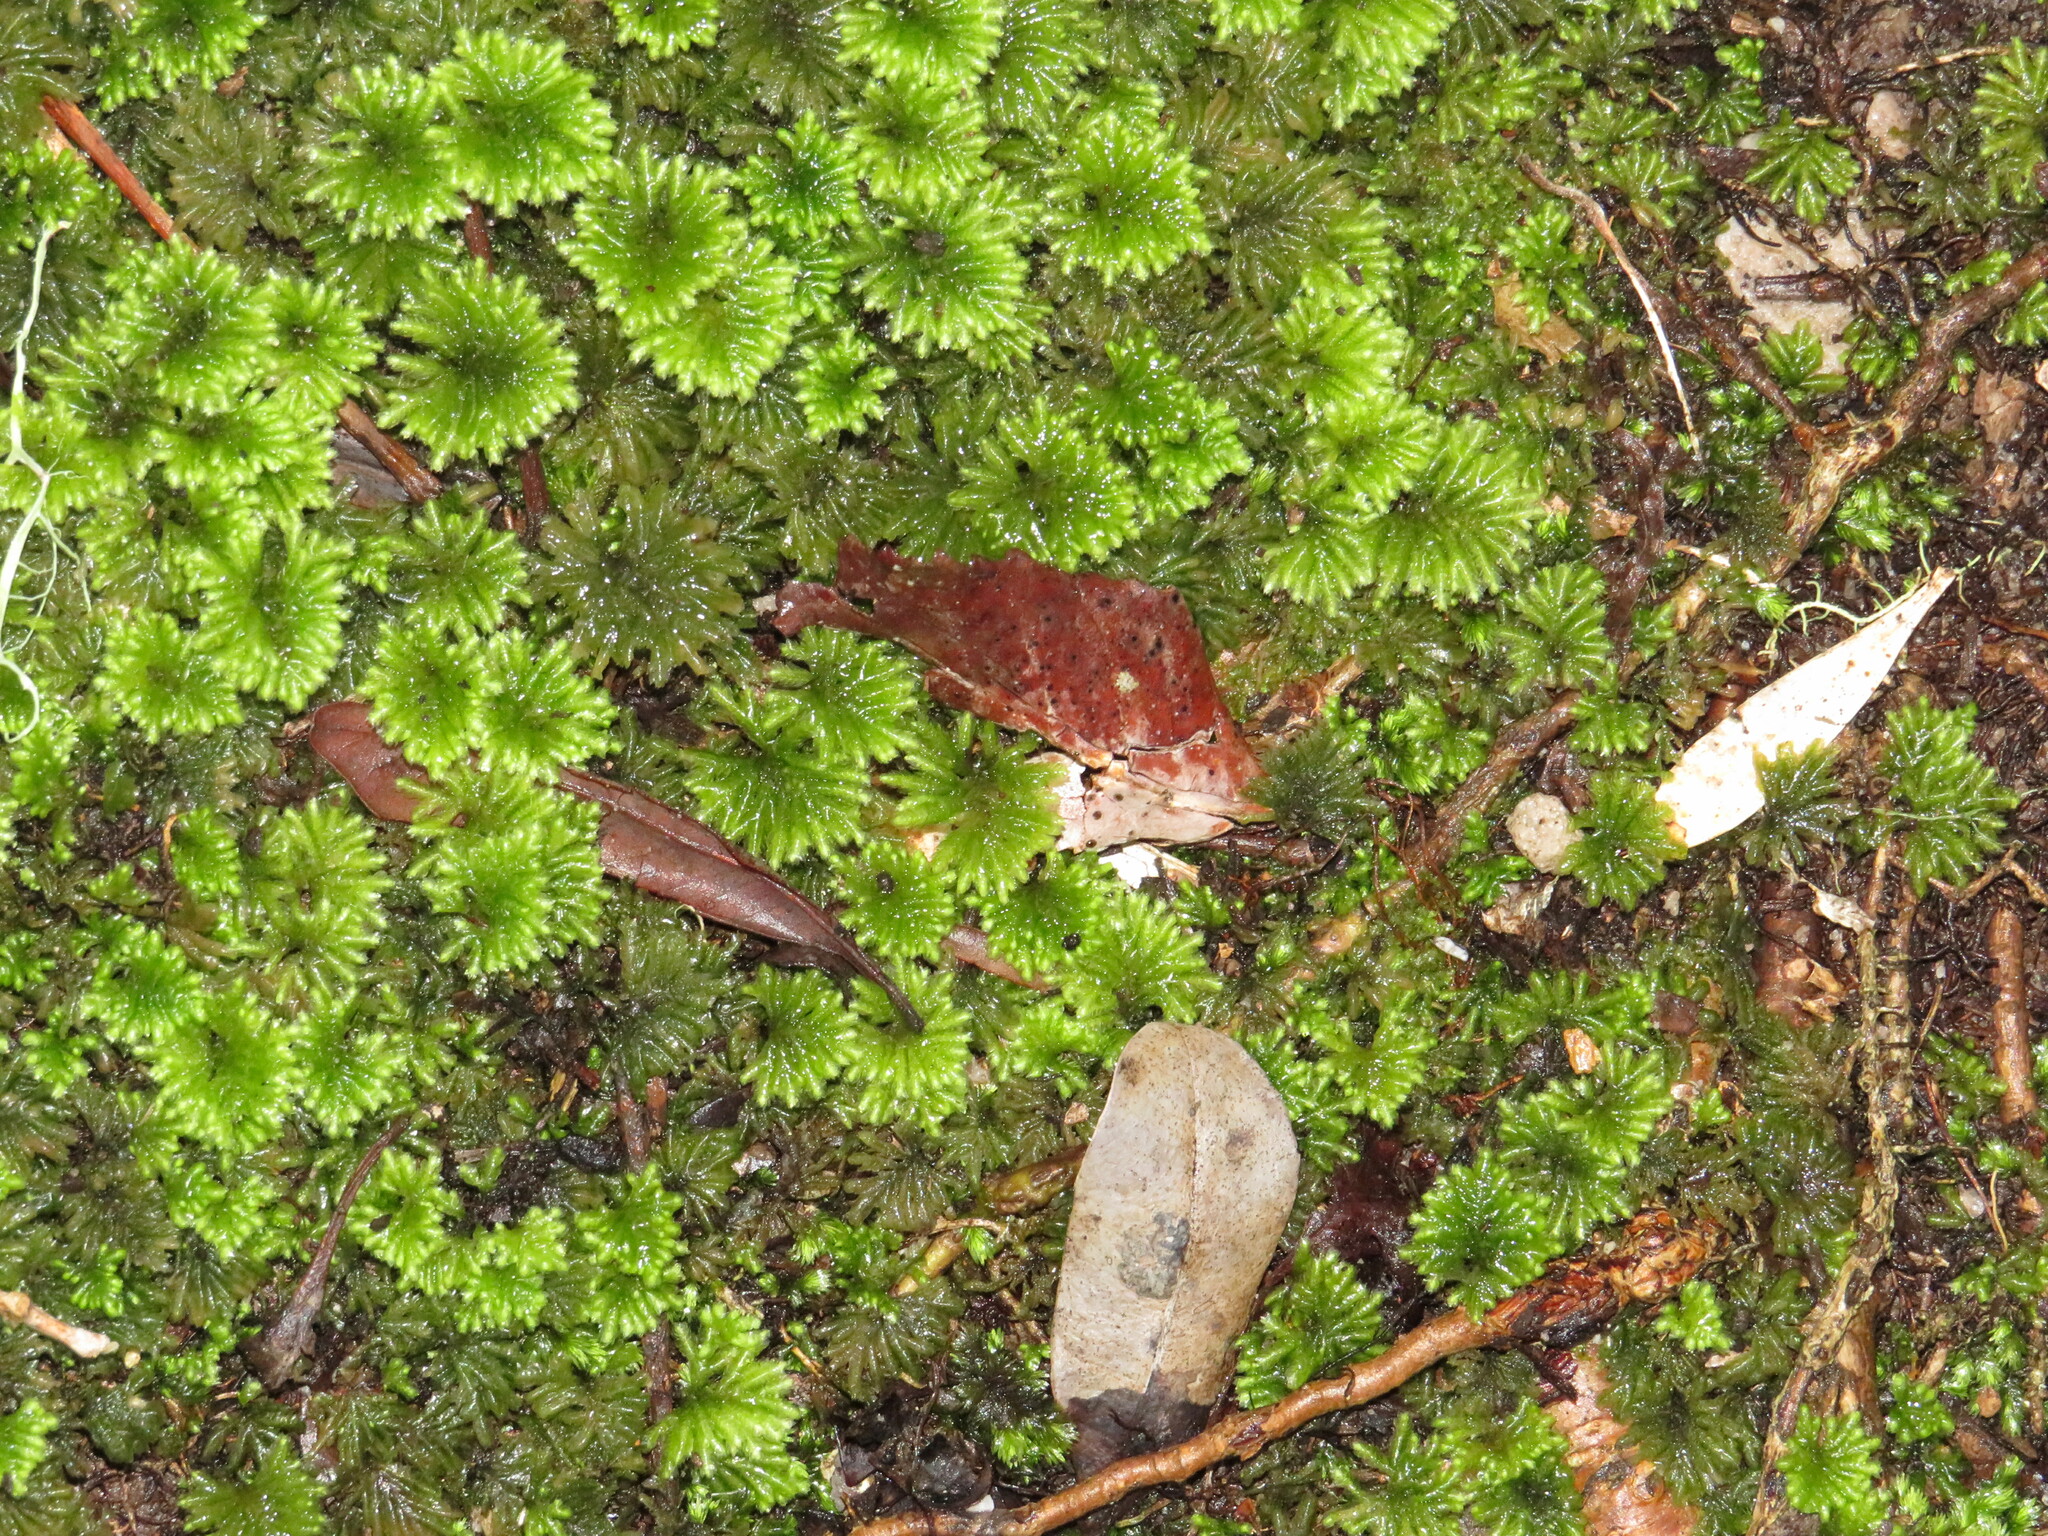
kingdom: Plantae
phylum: Bryophyta
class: Bryopsida
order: Hypopterygiales
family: Hypopterygiaceae
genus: Hypopterygium
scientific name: Hypopterygium tamarisci
